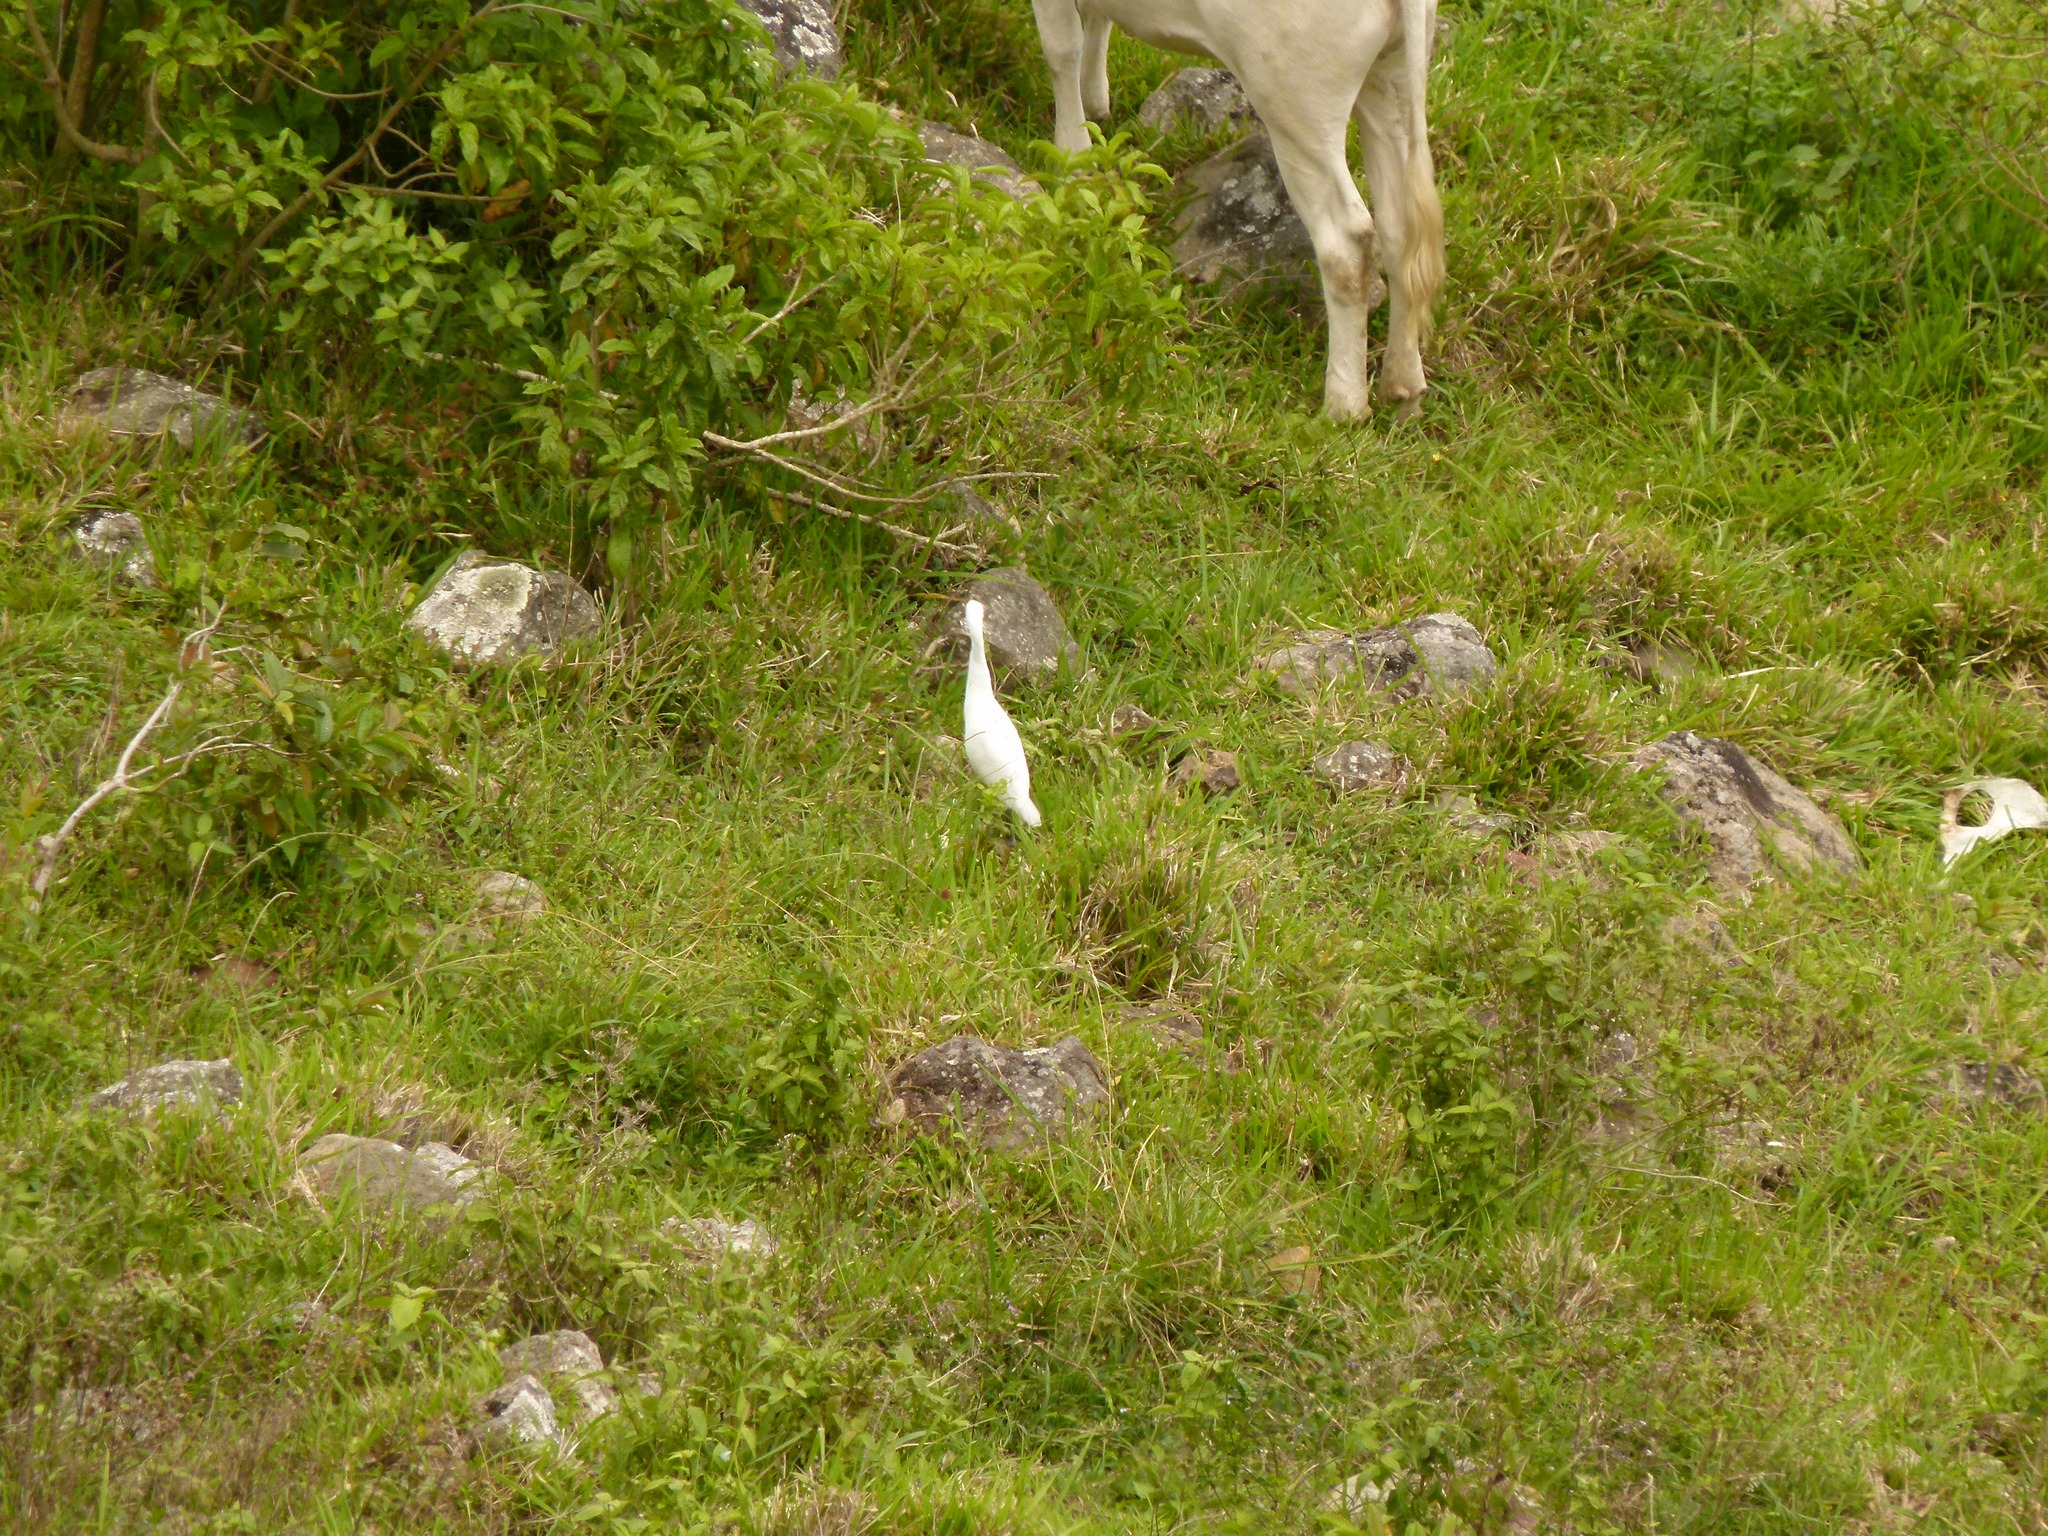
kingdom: Animalia
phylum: Chordata
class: Aves
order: Pelecaniformes
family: Ardeidae
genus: Bubulcus
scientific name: Bubulcus ibis
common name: Cattle egret
